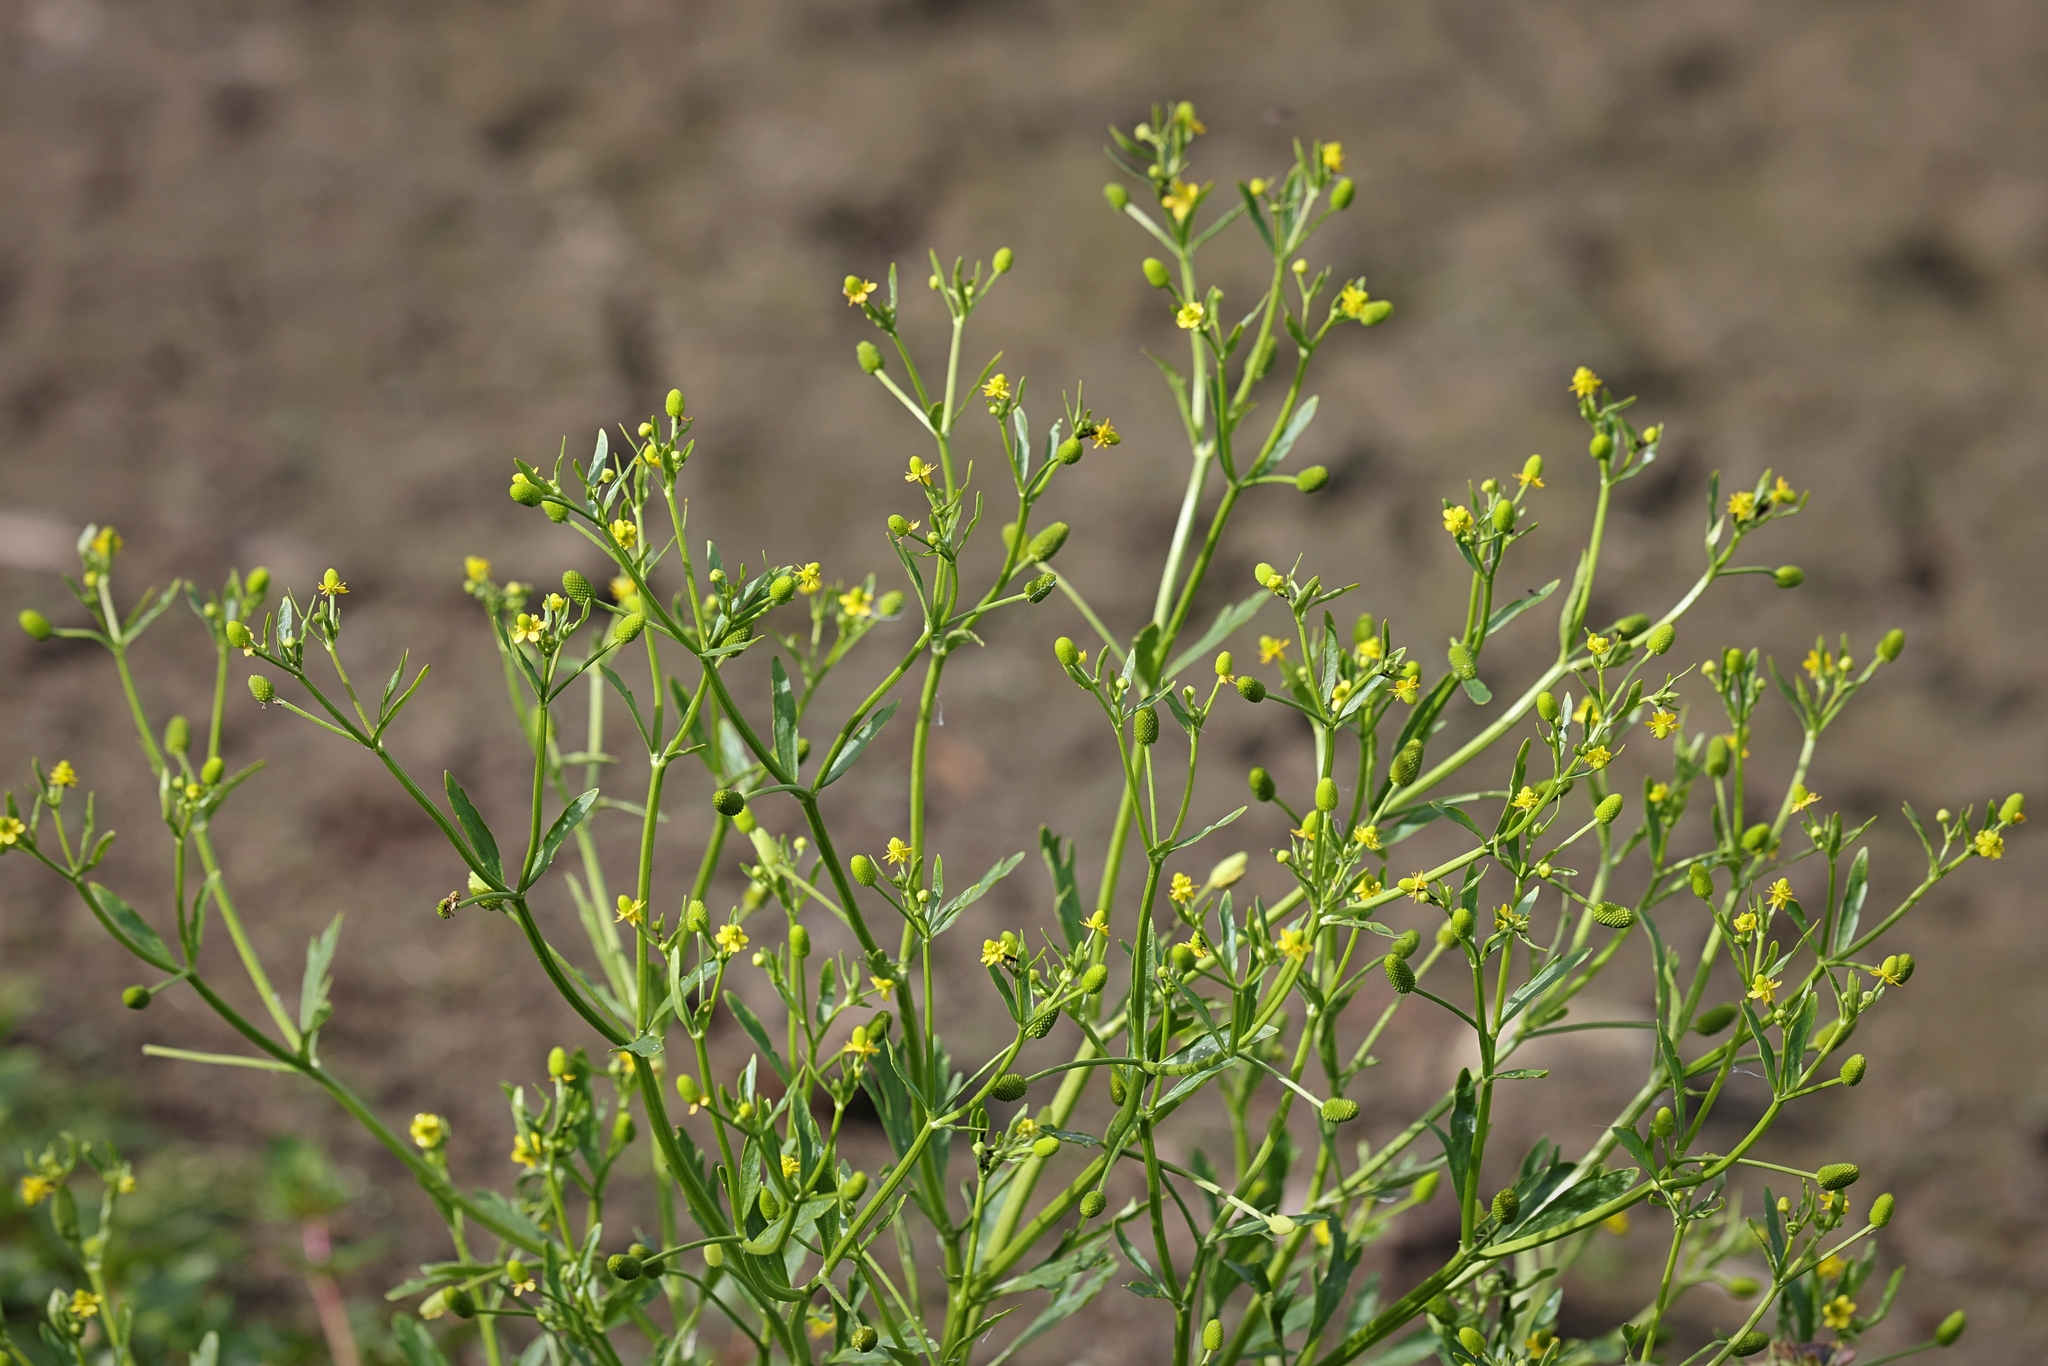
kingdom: Plantae
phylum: Tracheophyta
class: Magnoliopsida
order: Ranunculales
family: Ranunculaceae
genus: Ranunculus
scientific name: Ranunculus sceleratus
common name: Celery-leaved buttercup
